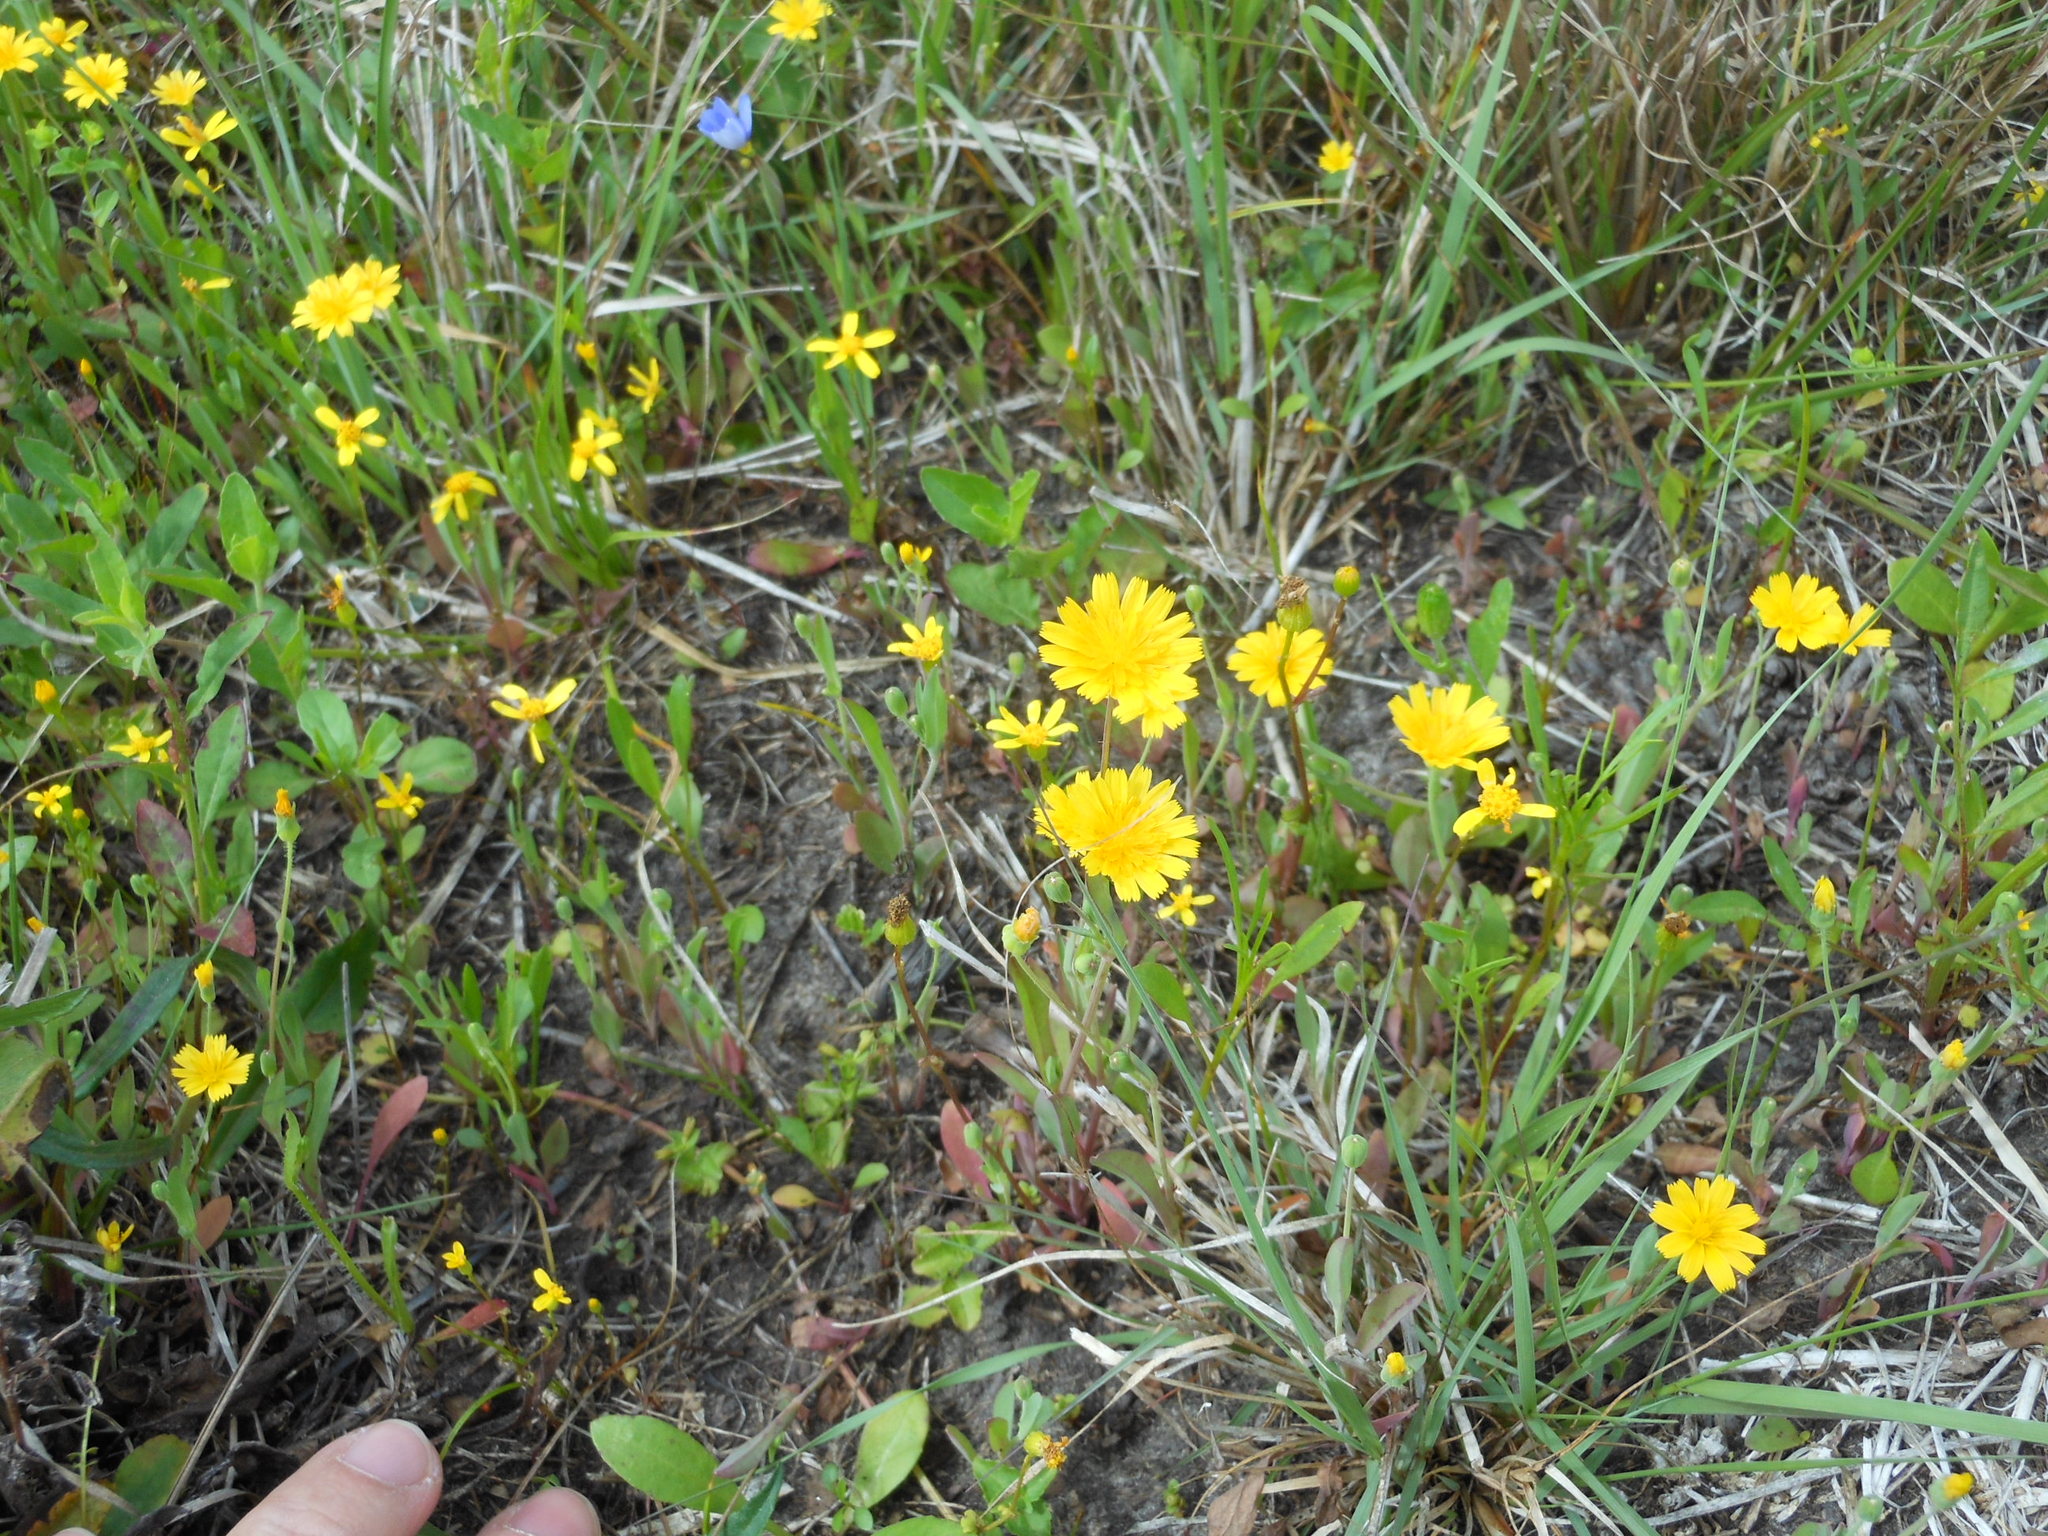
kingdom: Plantae
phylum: Tracheophyta
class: Magnoliopsida
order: Asterales
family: Asteraceae
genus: Krigia
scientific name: Krigia cespitosa
